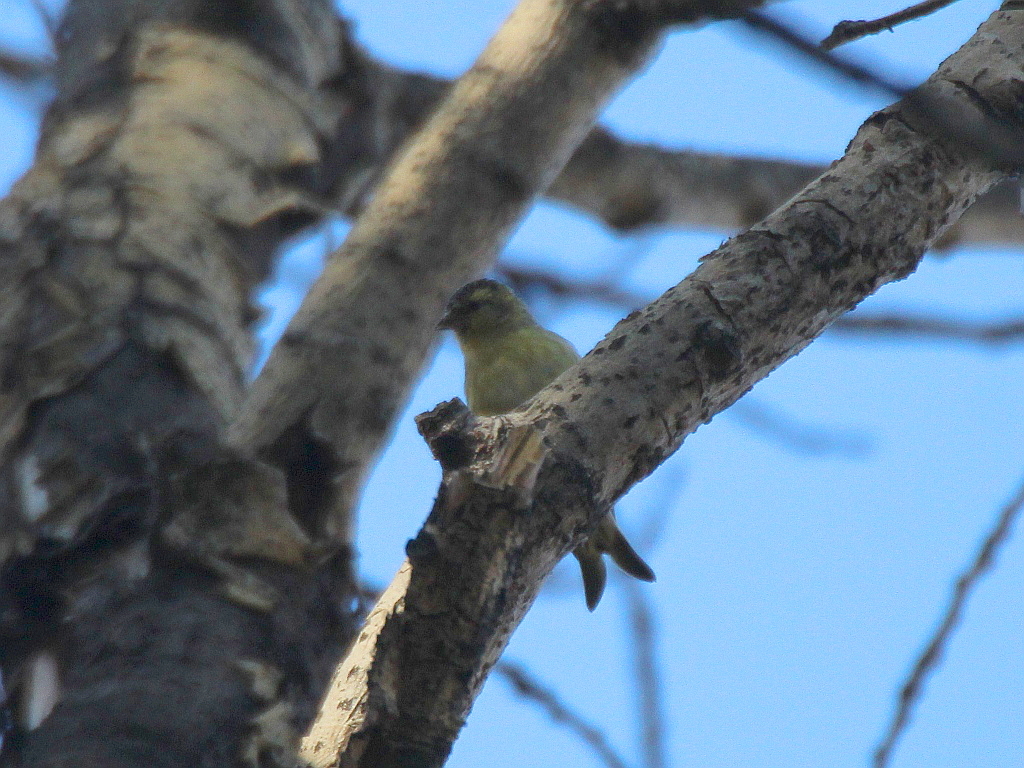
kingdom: Animalia
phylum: Chordata
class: Aves
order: Passeriformes
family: Fringillidae
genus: Spinus
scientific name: Spinus spinus
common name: Eurasian siskin
